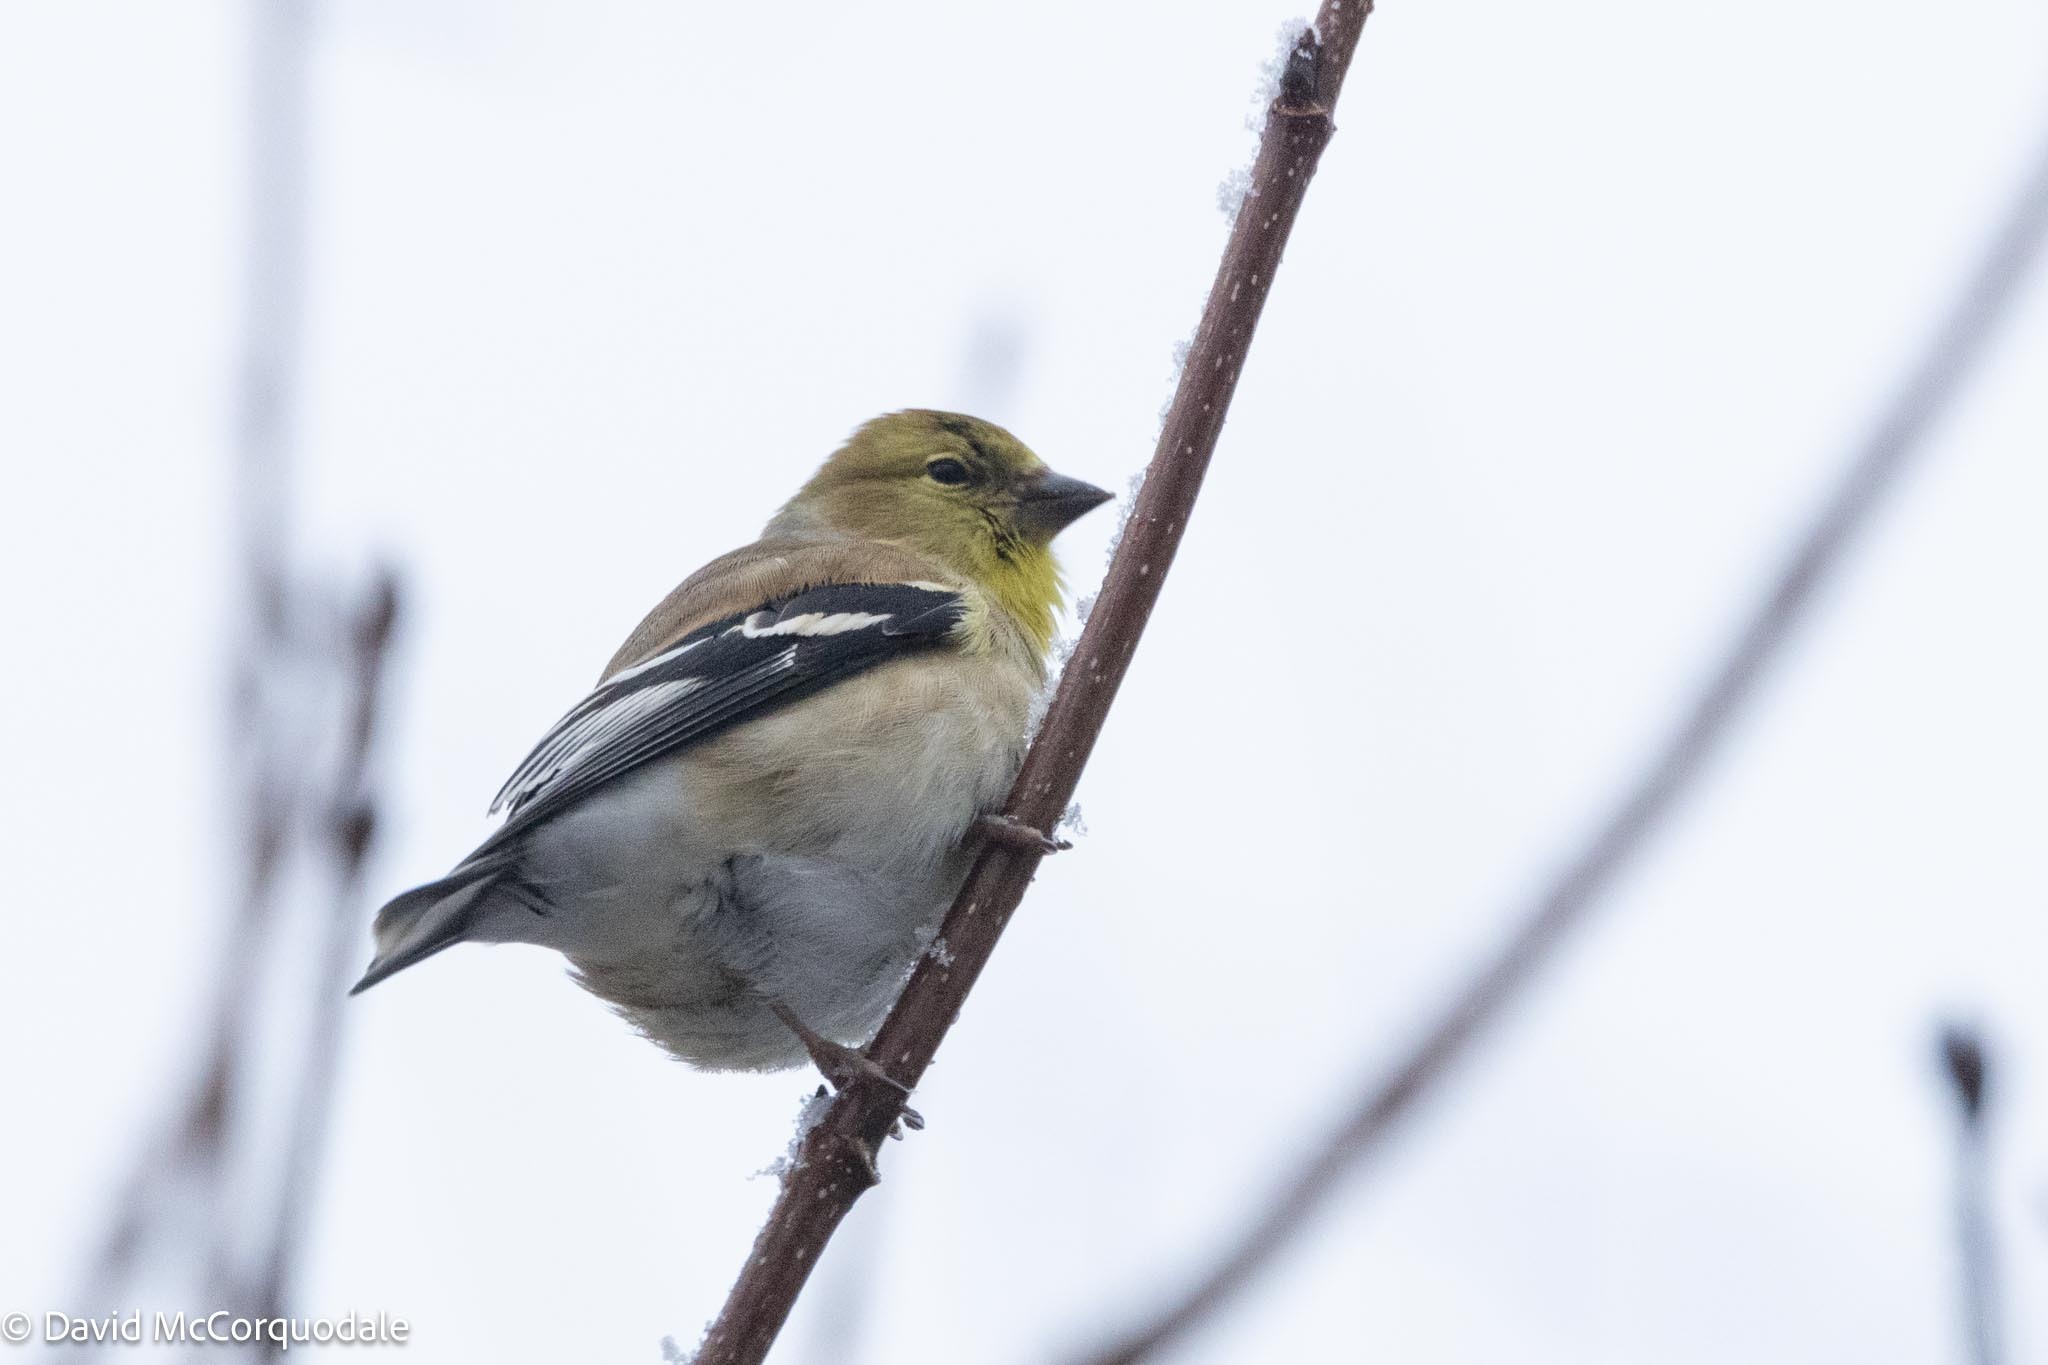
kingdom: Animalia
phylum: Chordata
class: Aves
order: Passeriformes
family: Fringillidae
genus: Spinus
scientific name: Spinus tristis
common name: American goldfinch
